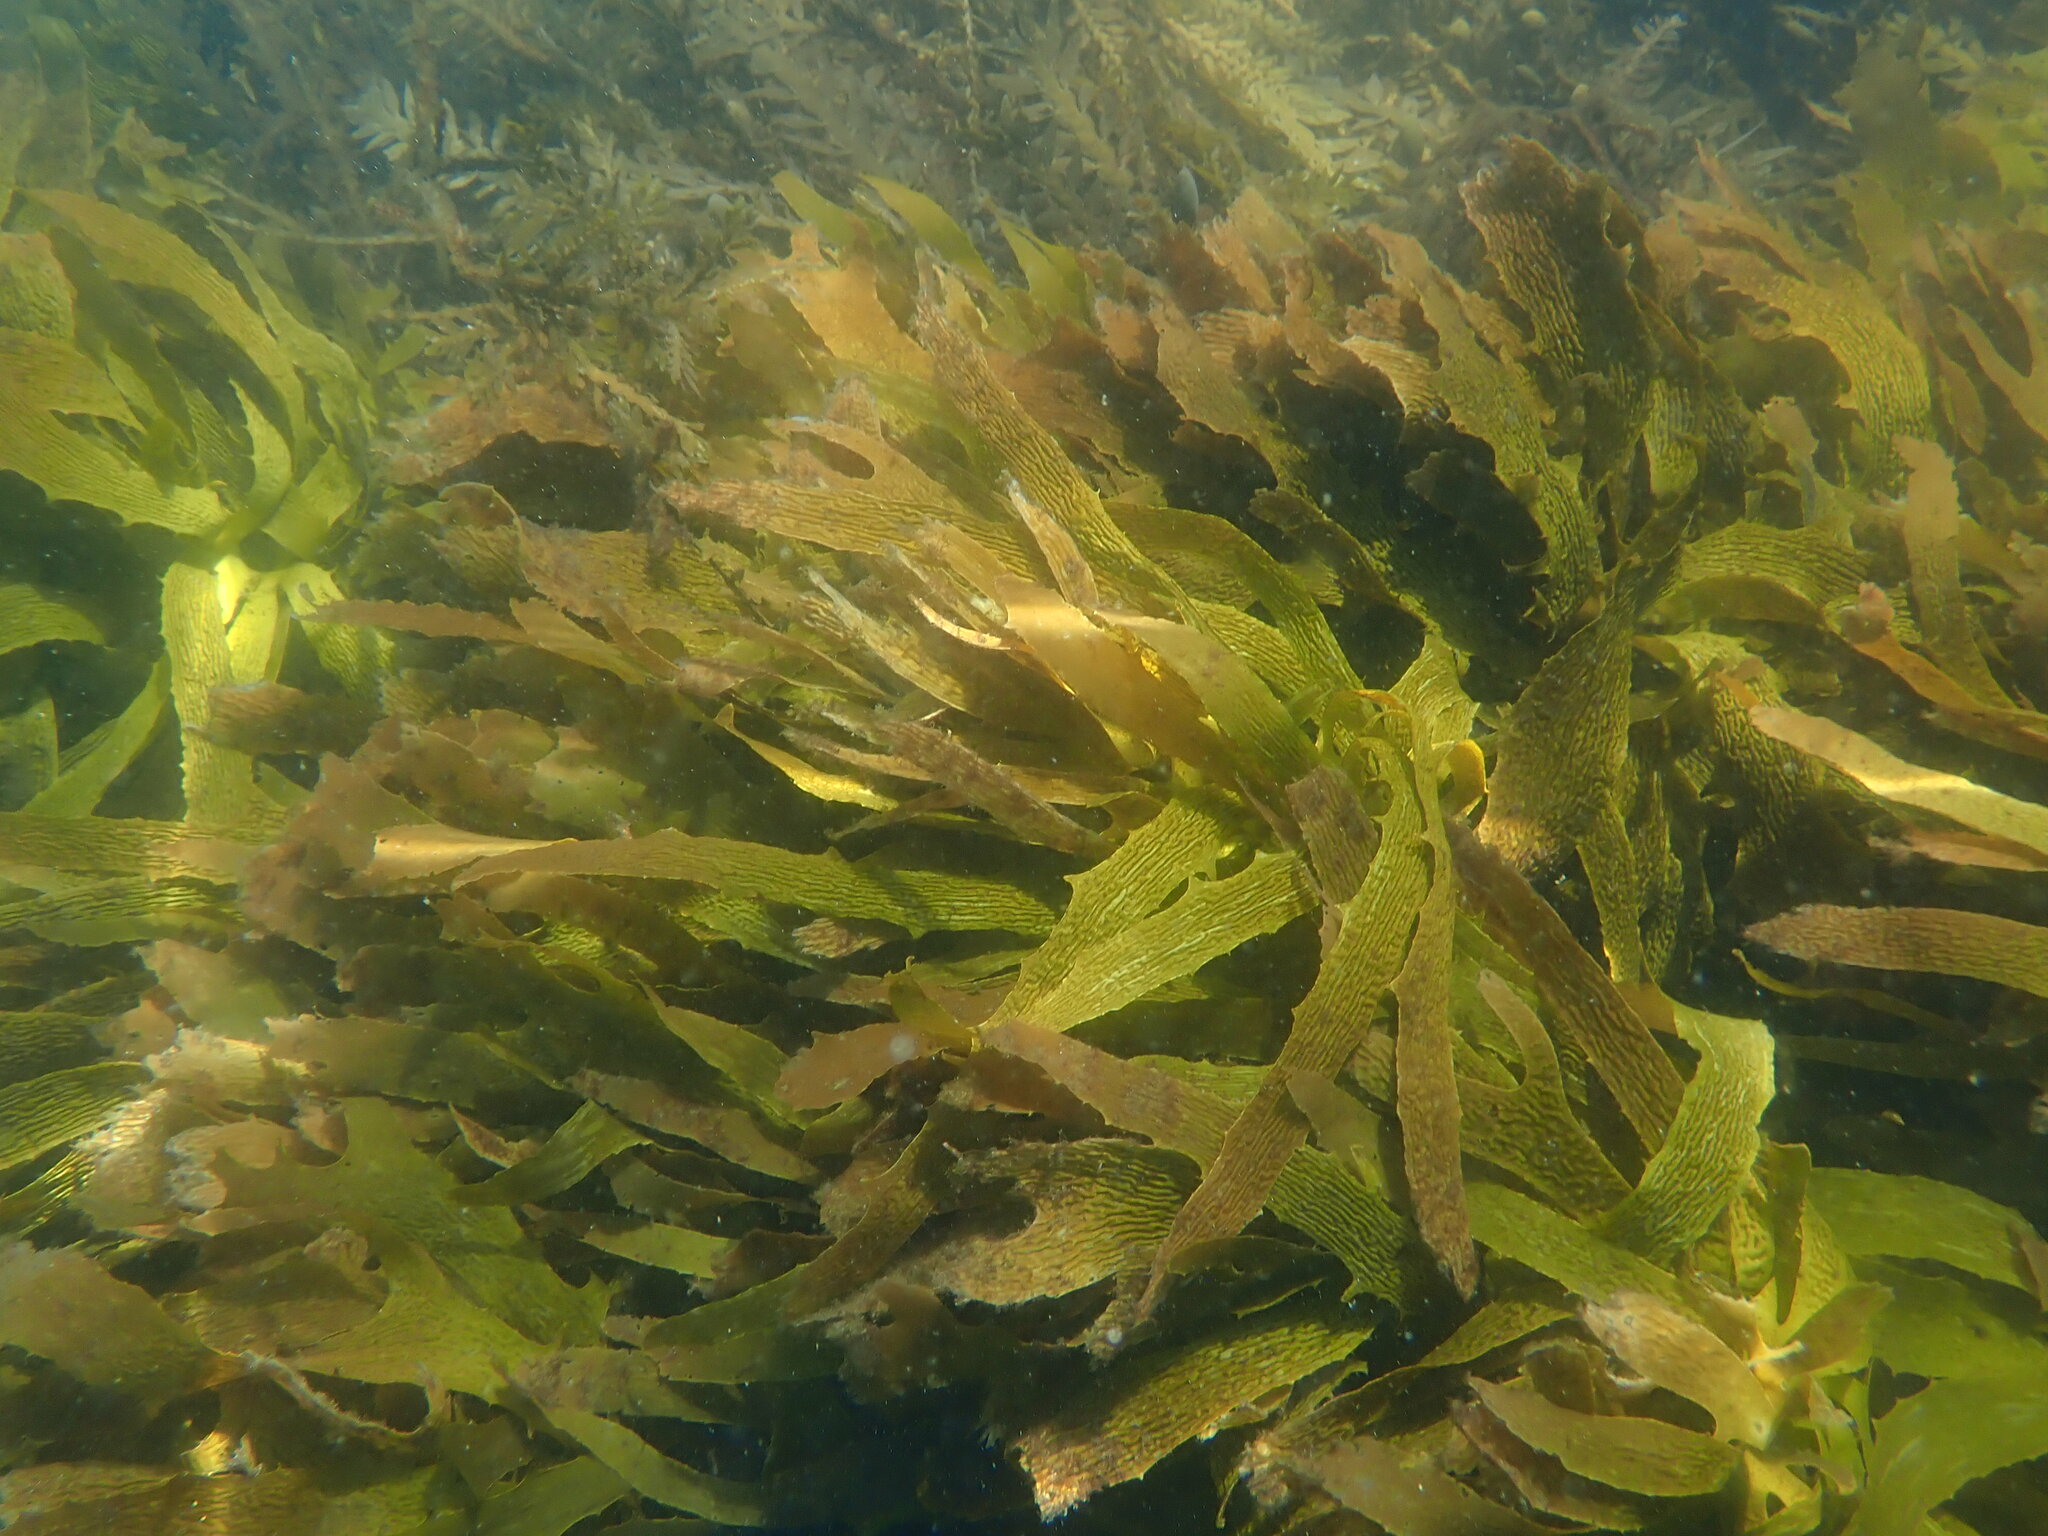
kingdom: Chromista
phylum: Ochrophyta
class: Phaeophyceae
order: Laminariales
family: Lessoniaceae
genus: Ecklonia
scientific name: Ecklonia radiata
